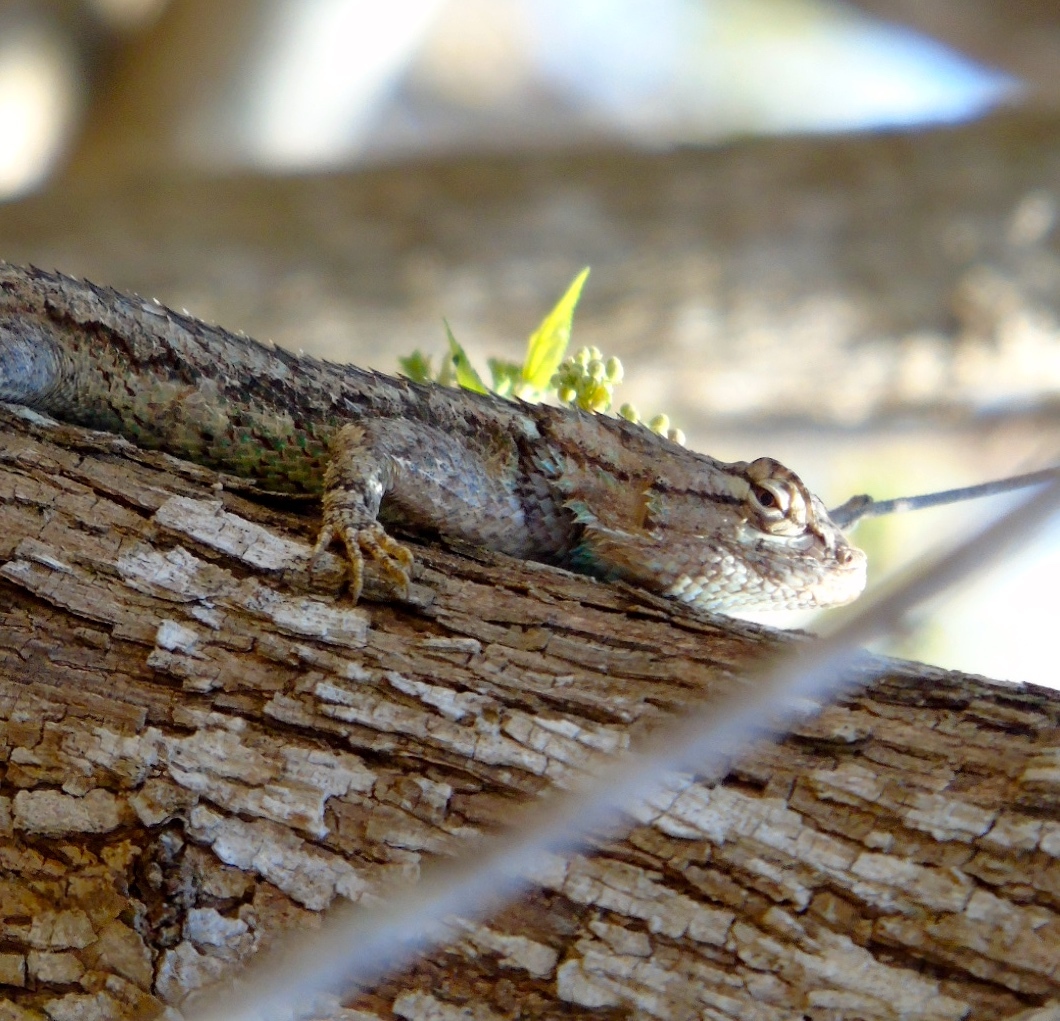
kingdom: Animalia
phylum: Chordata
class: Squamata
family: Phrynosomatidae
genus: Sceloporus
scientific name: Sceloporus clarkii
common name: Clark's spiny lizard
